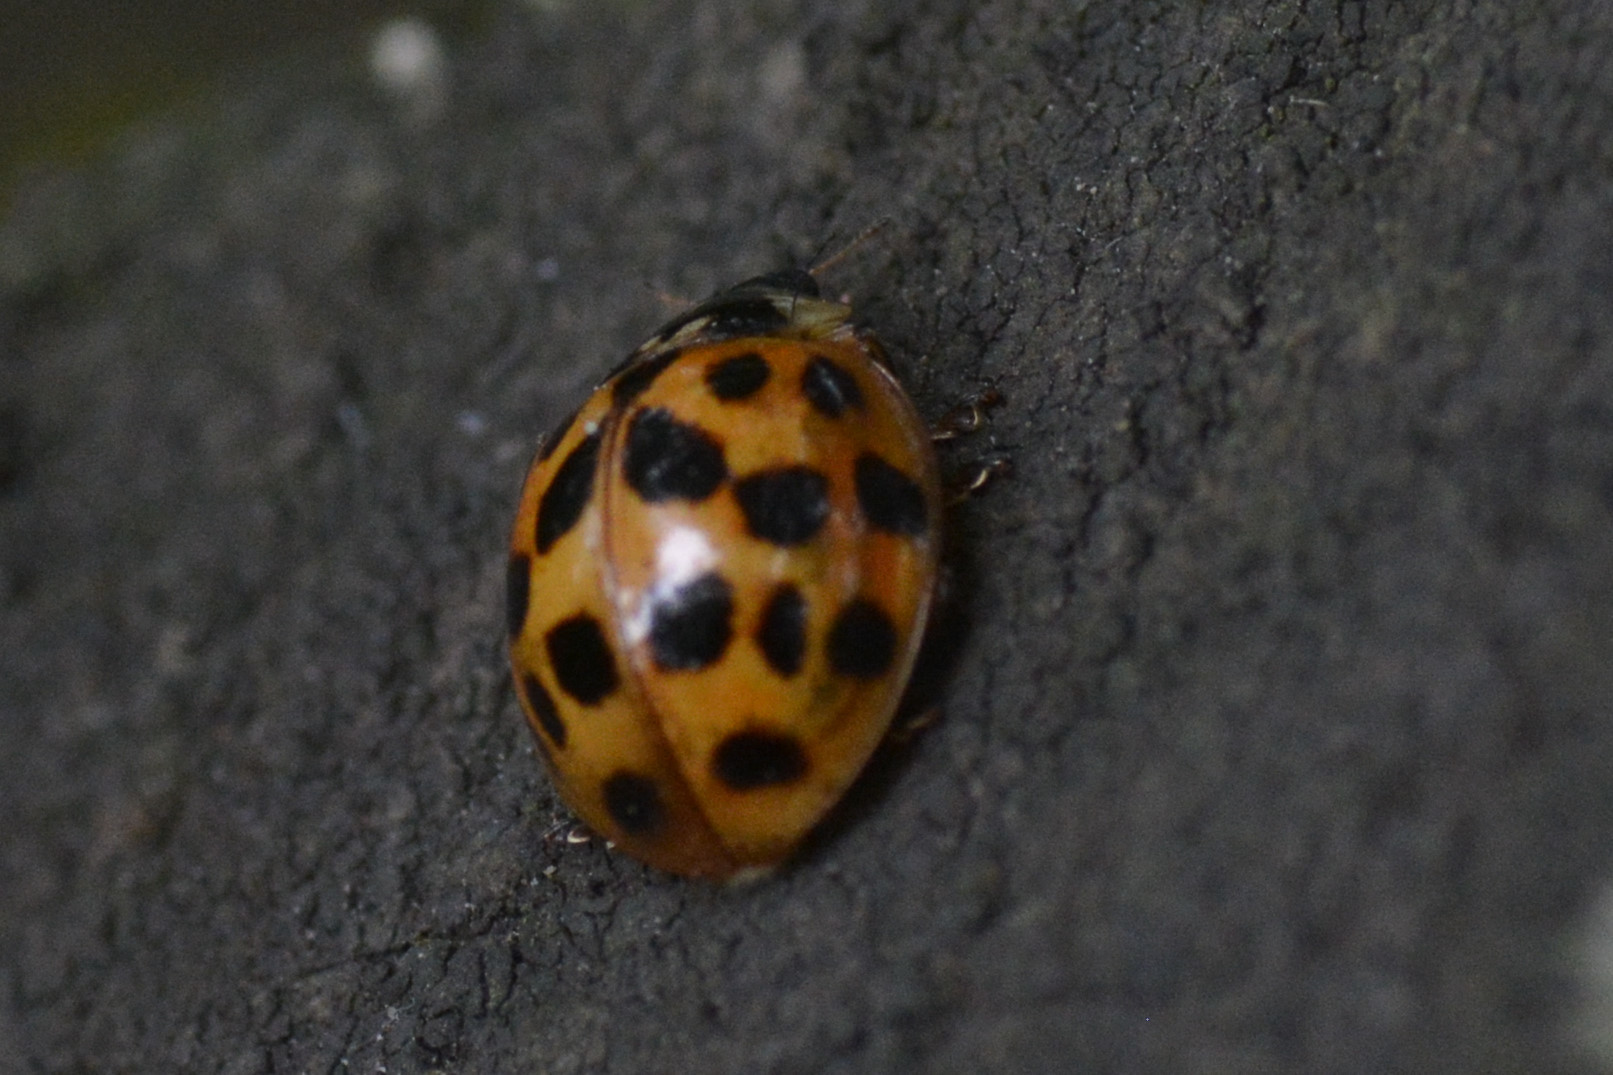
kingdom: Animalia
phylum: Arthropoda
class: Insecta
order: Coleoptera
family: Coccinellidae
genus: Harmonia
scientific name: Harmonia axyridis
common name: Harlequin ladybird
